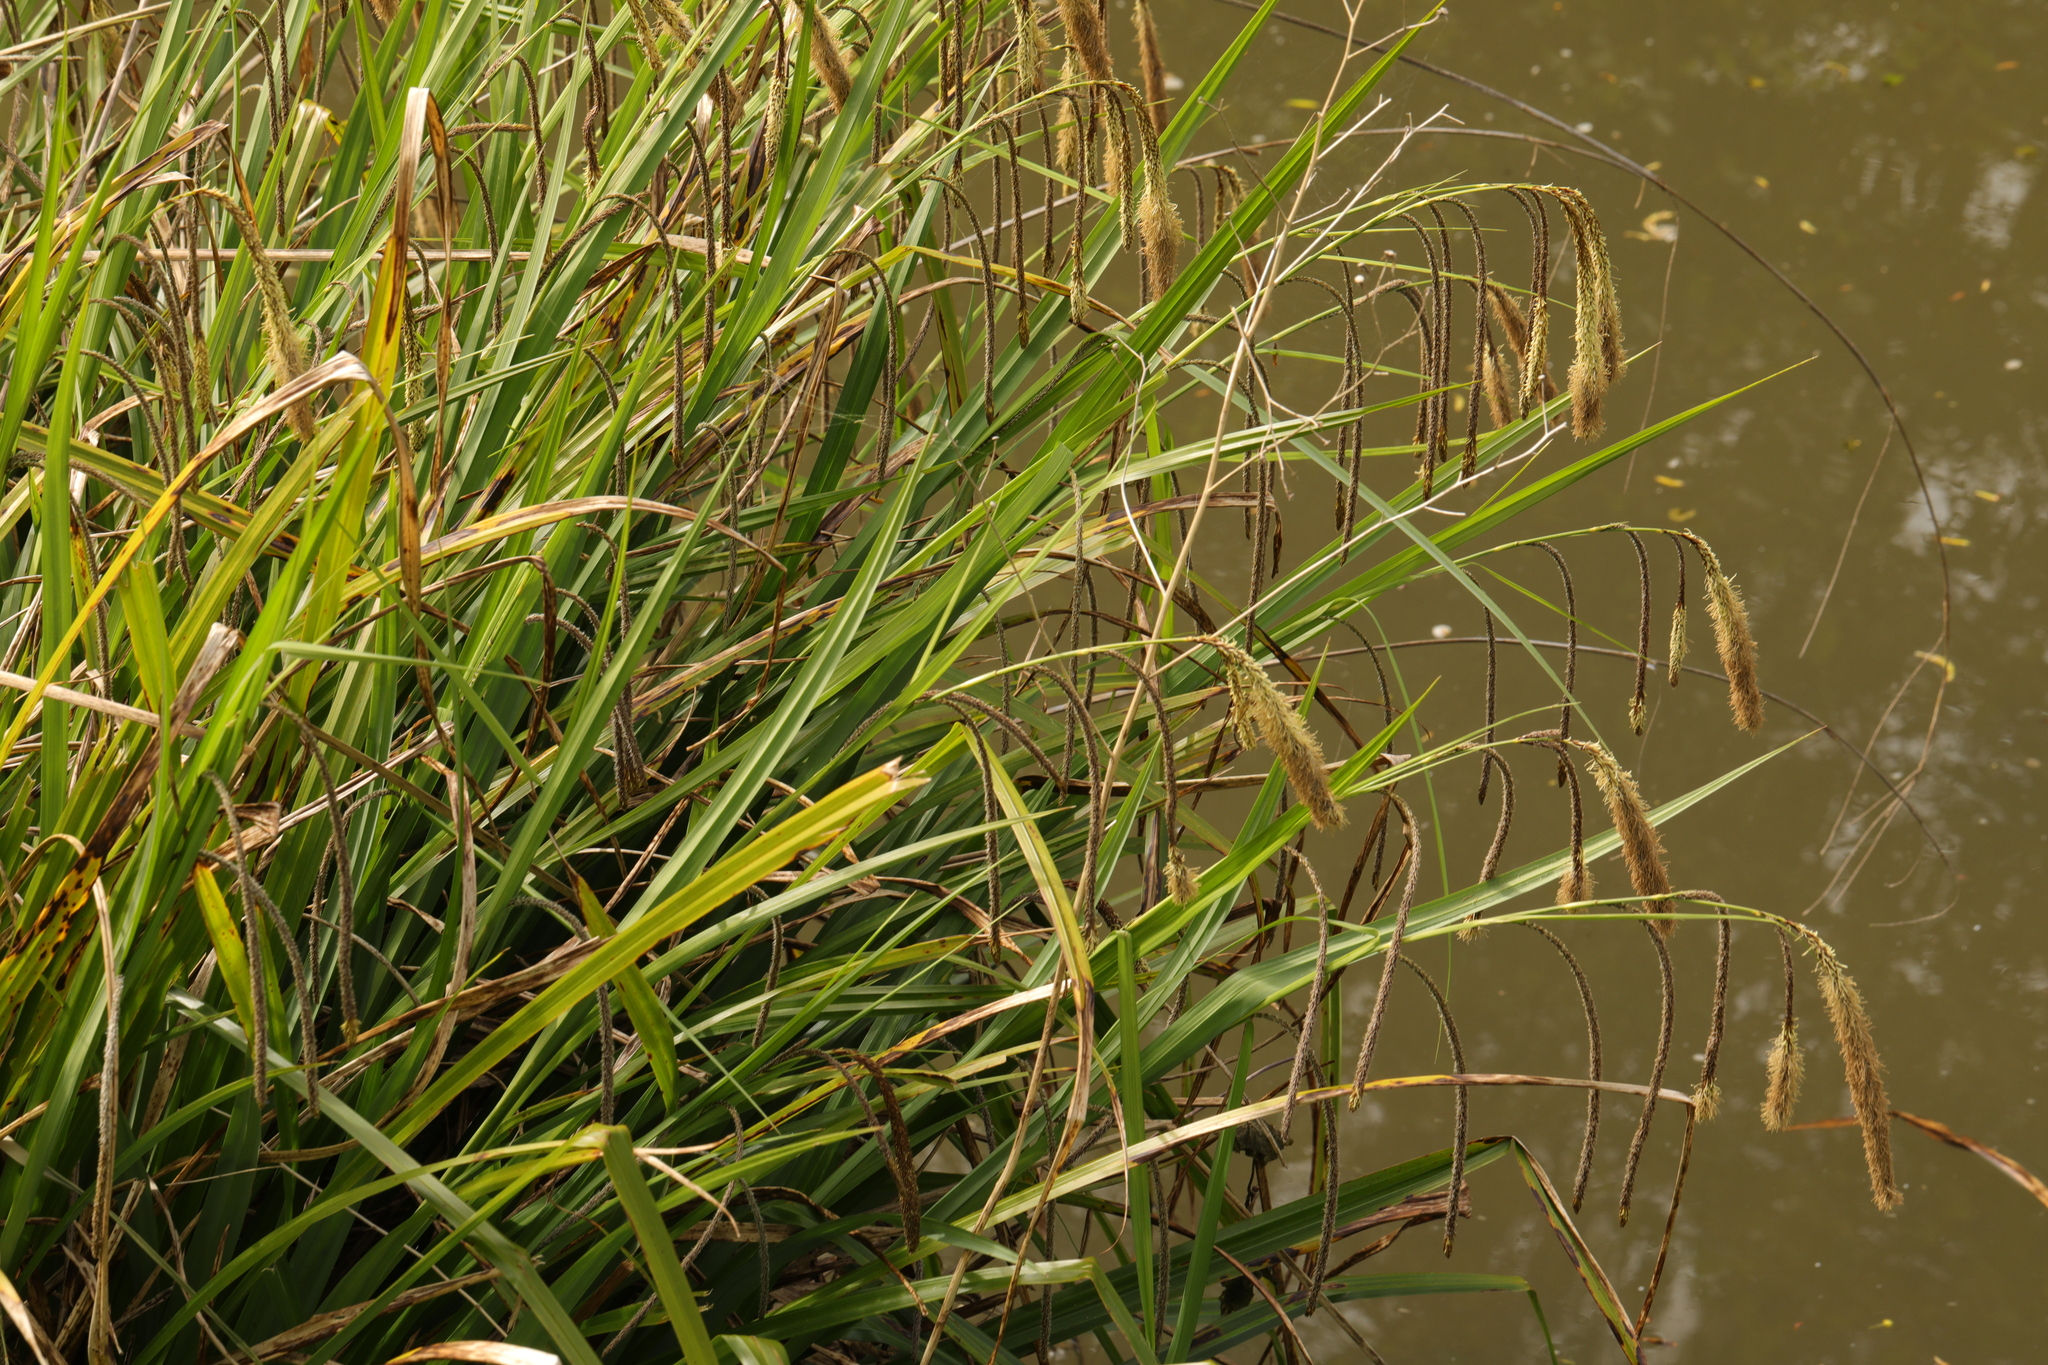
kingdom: Plantae
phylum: Tracheophyta
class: Liliopsida
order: Poales
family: Cyperaceae
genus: Carex
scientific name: Carex pendula
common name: Pendulous sedge
